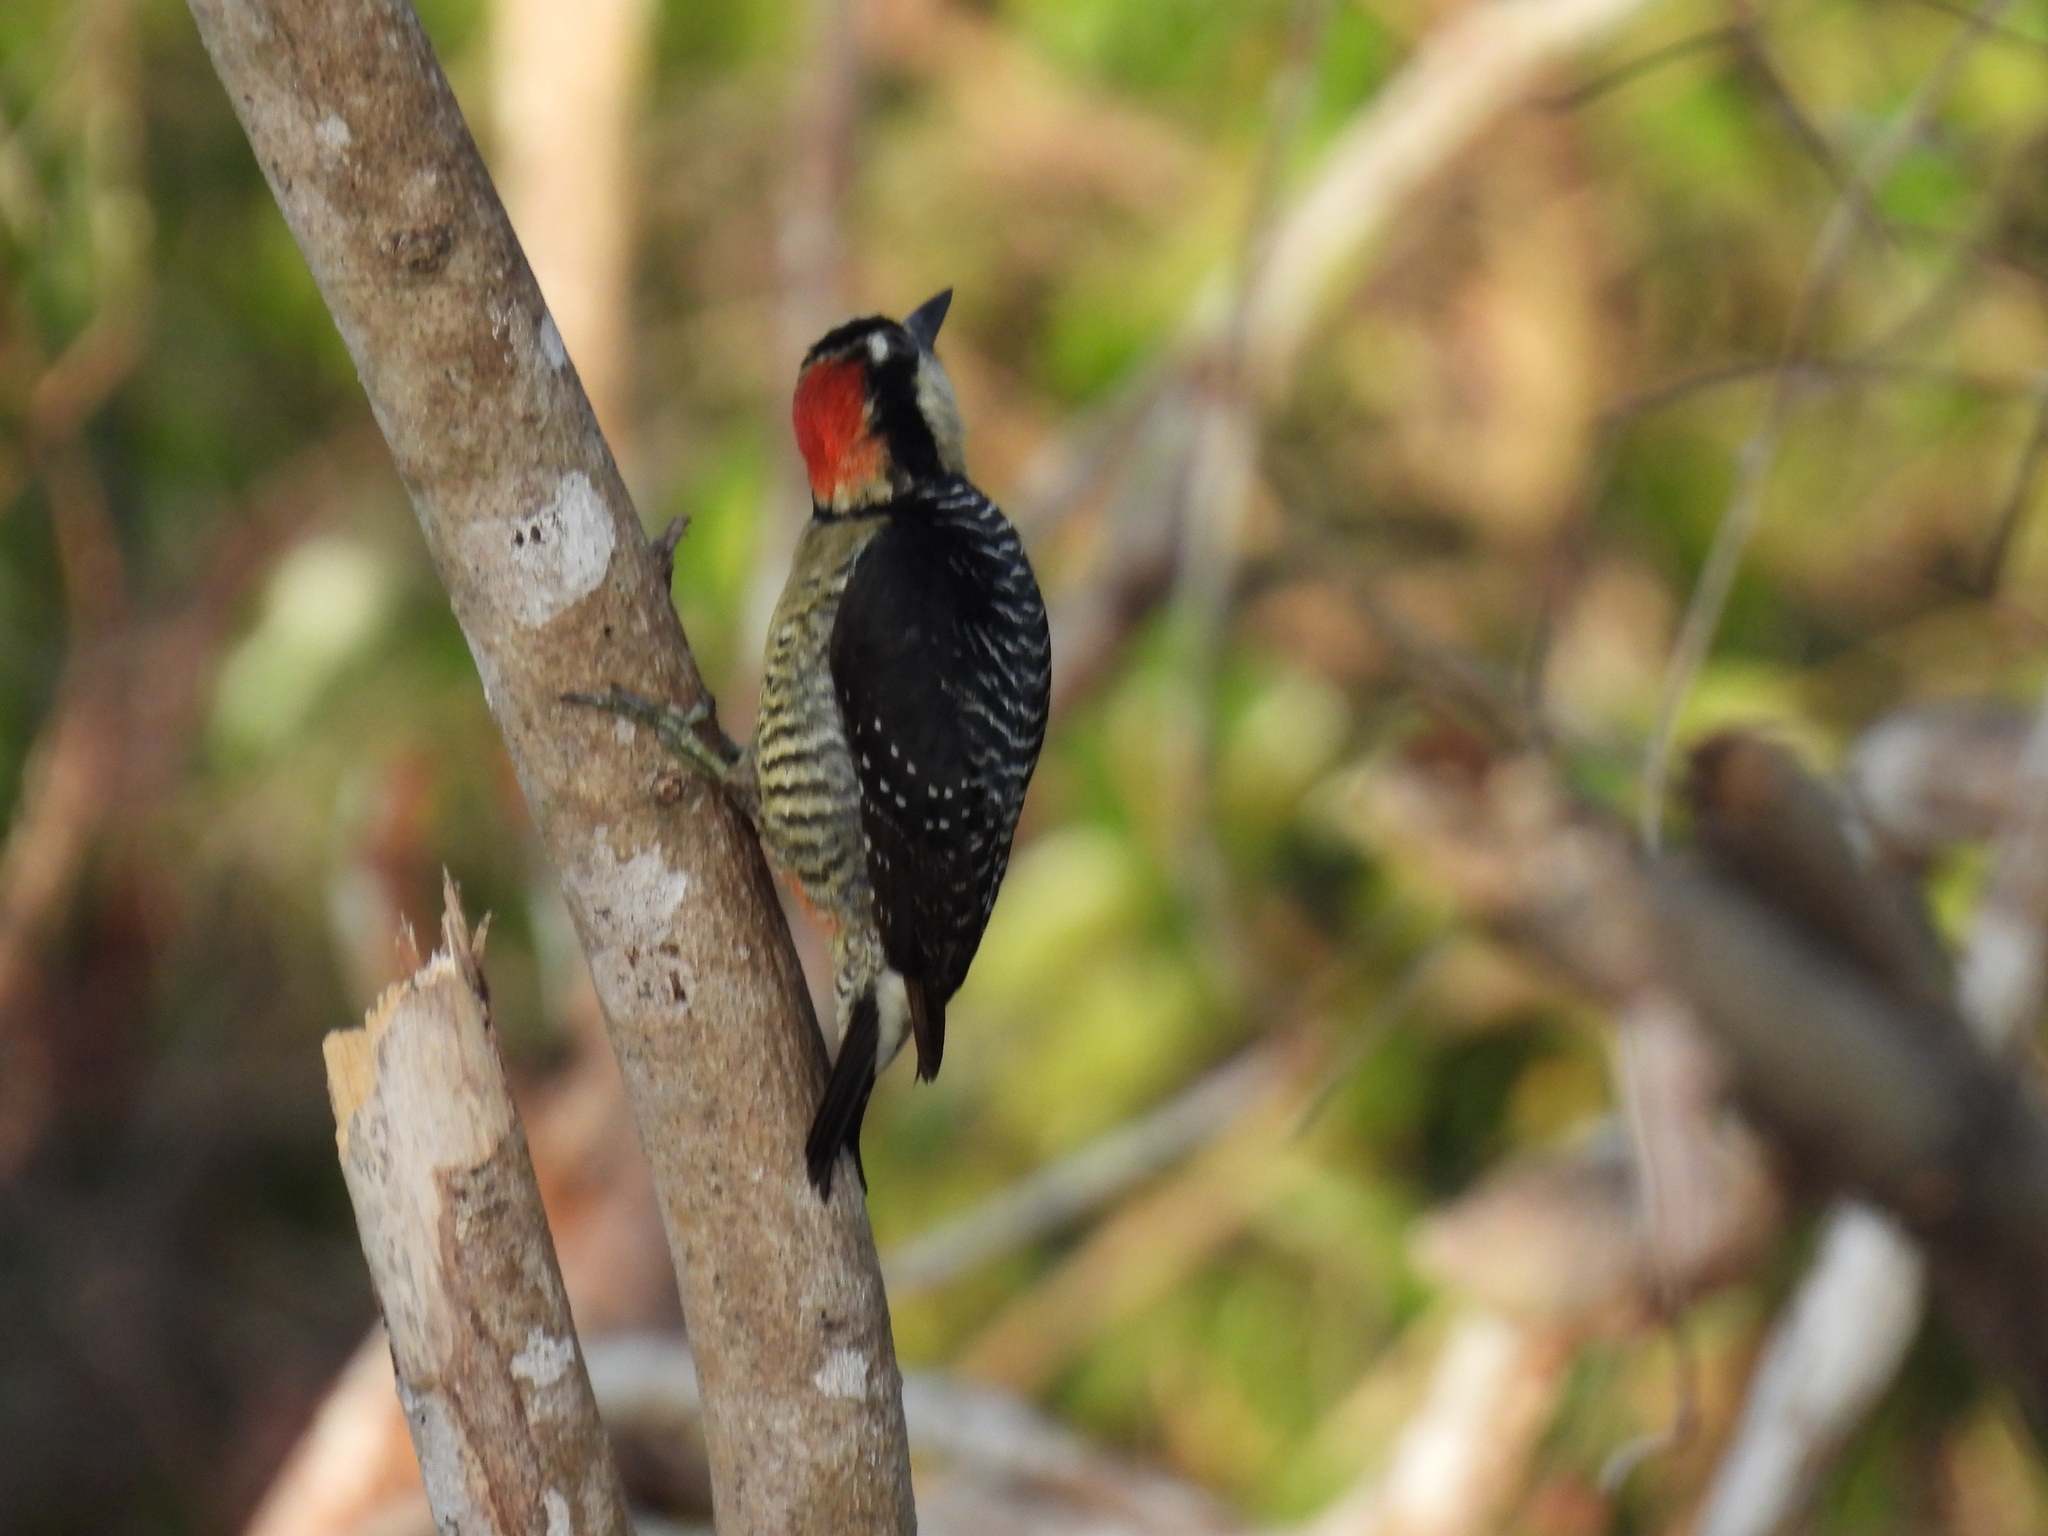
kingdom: Animalia
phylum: Chordata
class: Aves
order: Piciformes
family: Picidae
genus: Melanerpes
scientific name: Melanerpes pucherani
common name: Black-cheeked woodpecker
